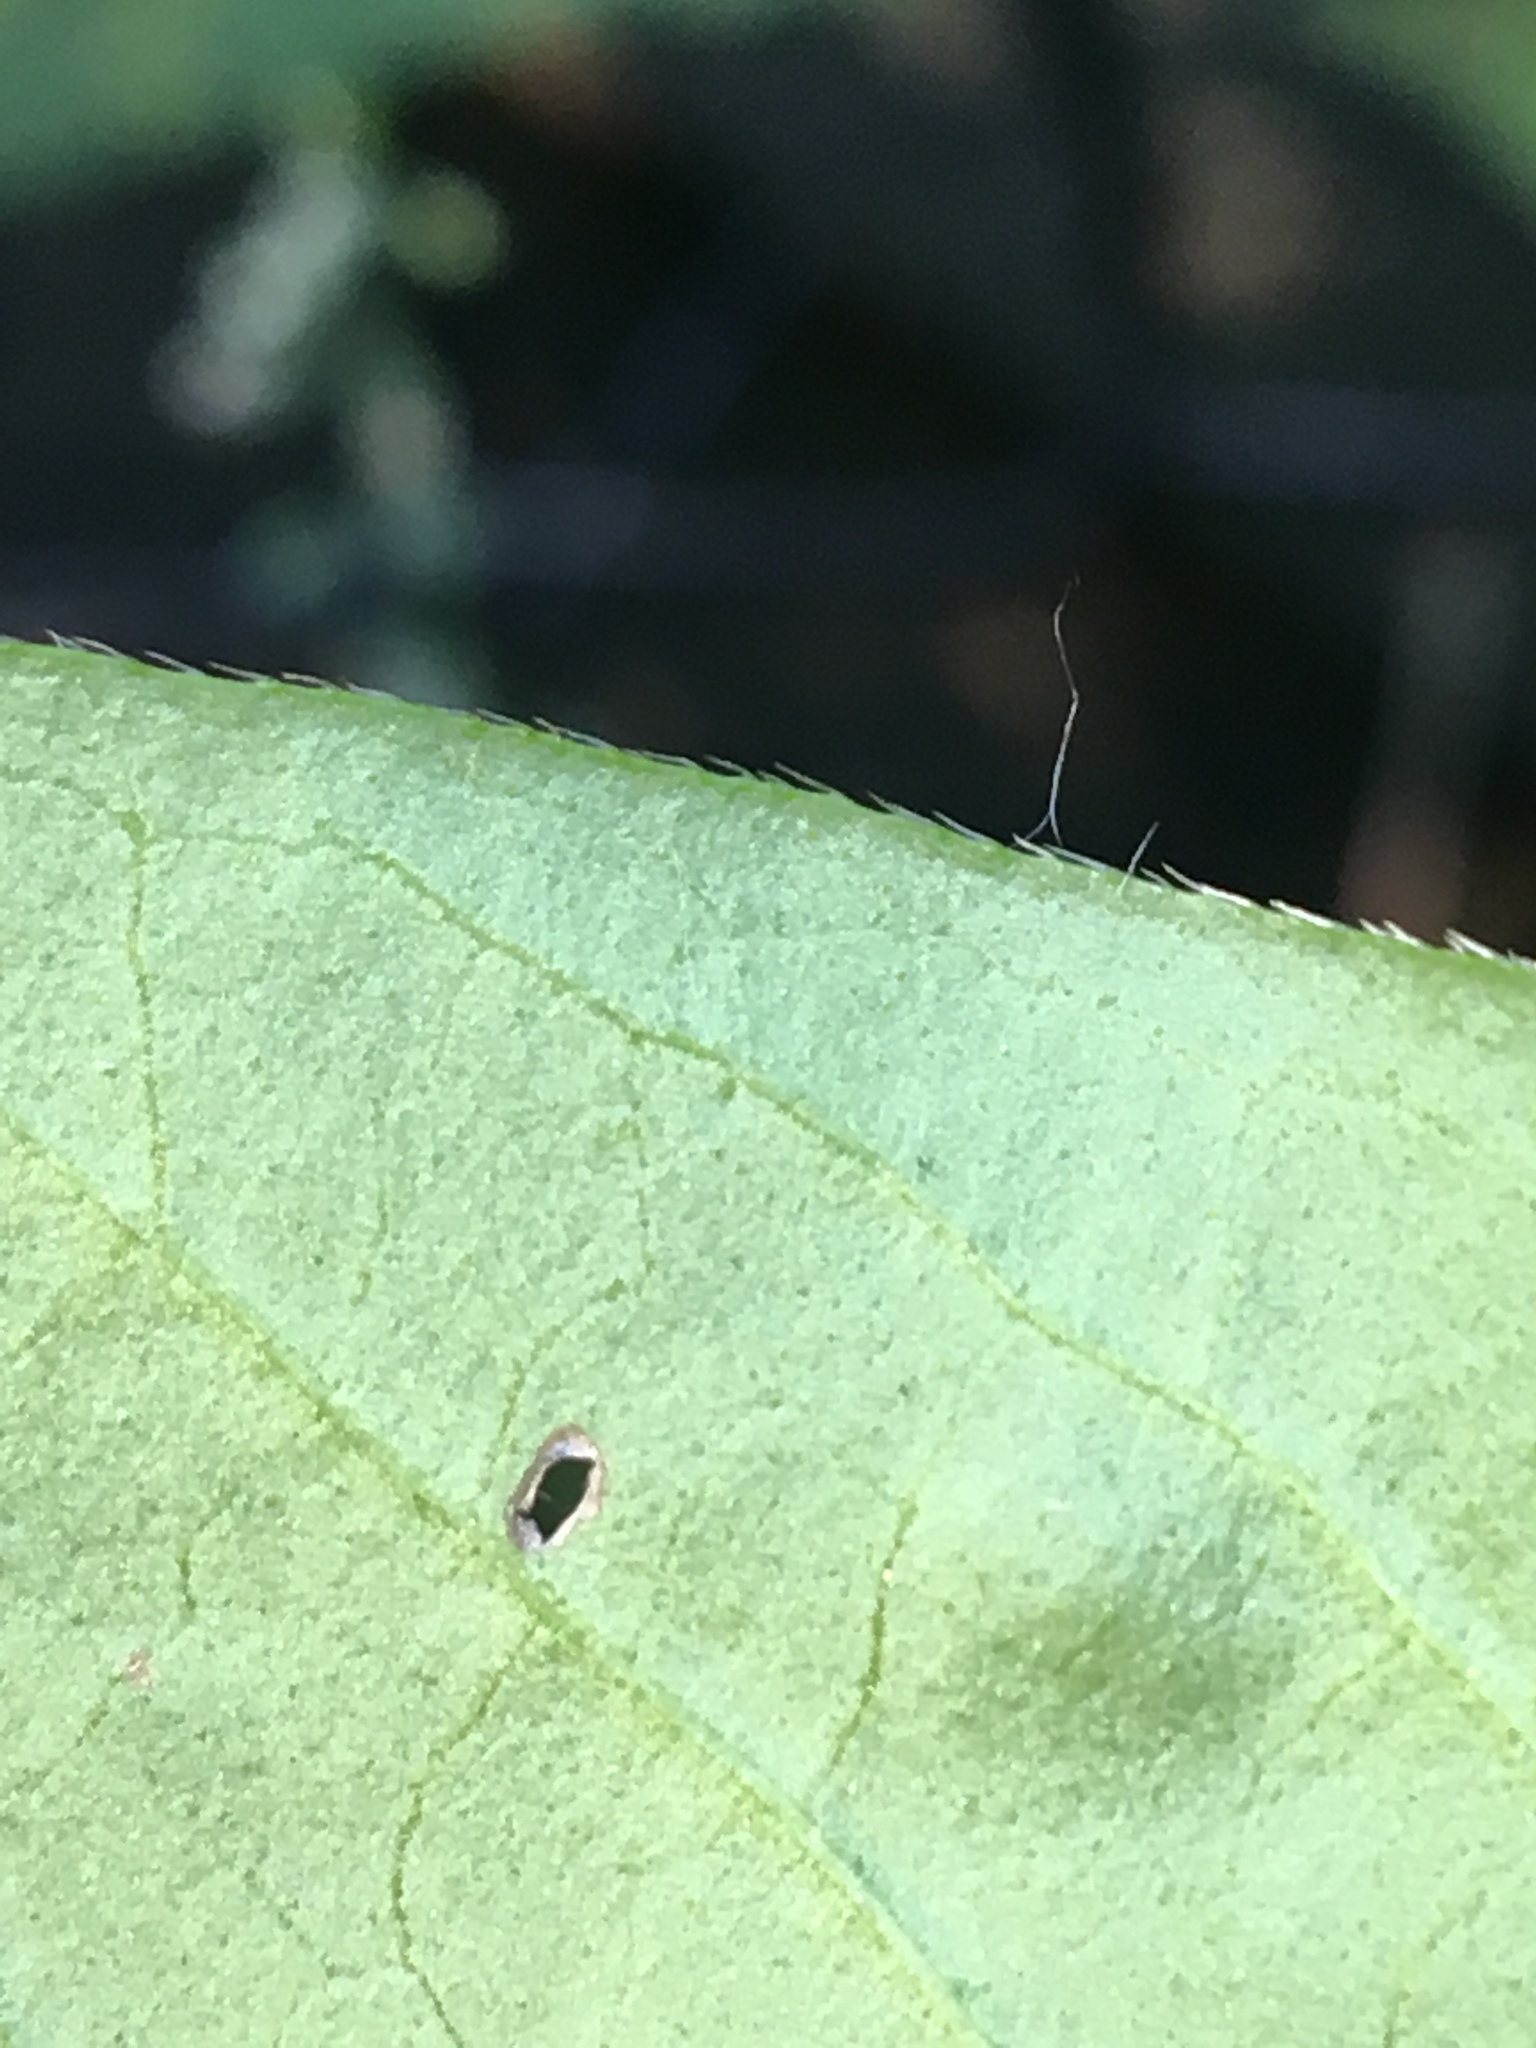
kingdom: Plantae
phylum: Tracheophyta
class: Magnoliopsida
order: Caryophyllales
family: Polygonaceae
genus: Persicaria
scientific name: Persicaria extremiorientalis
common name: Far-eastern smartweed
